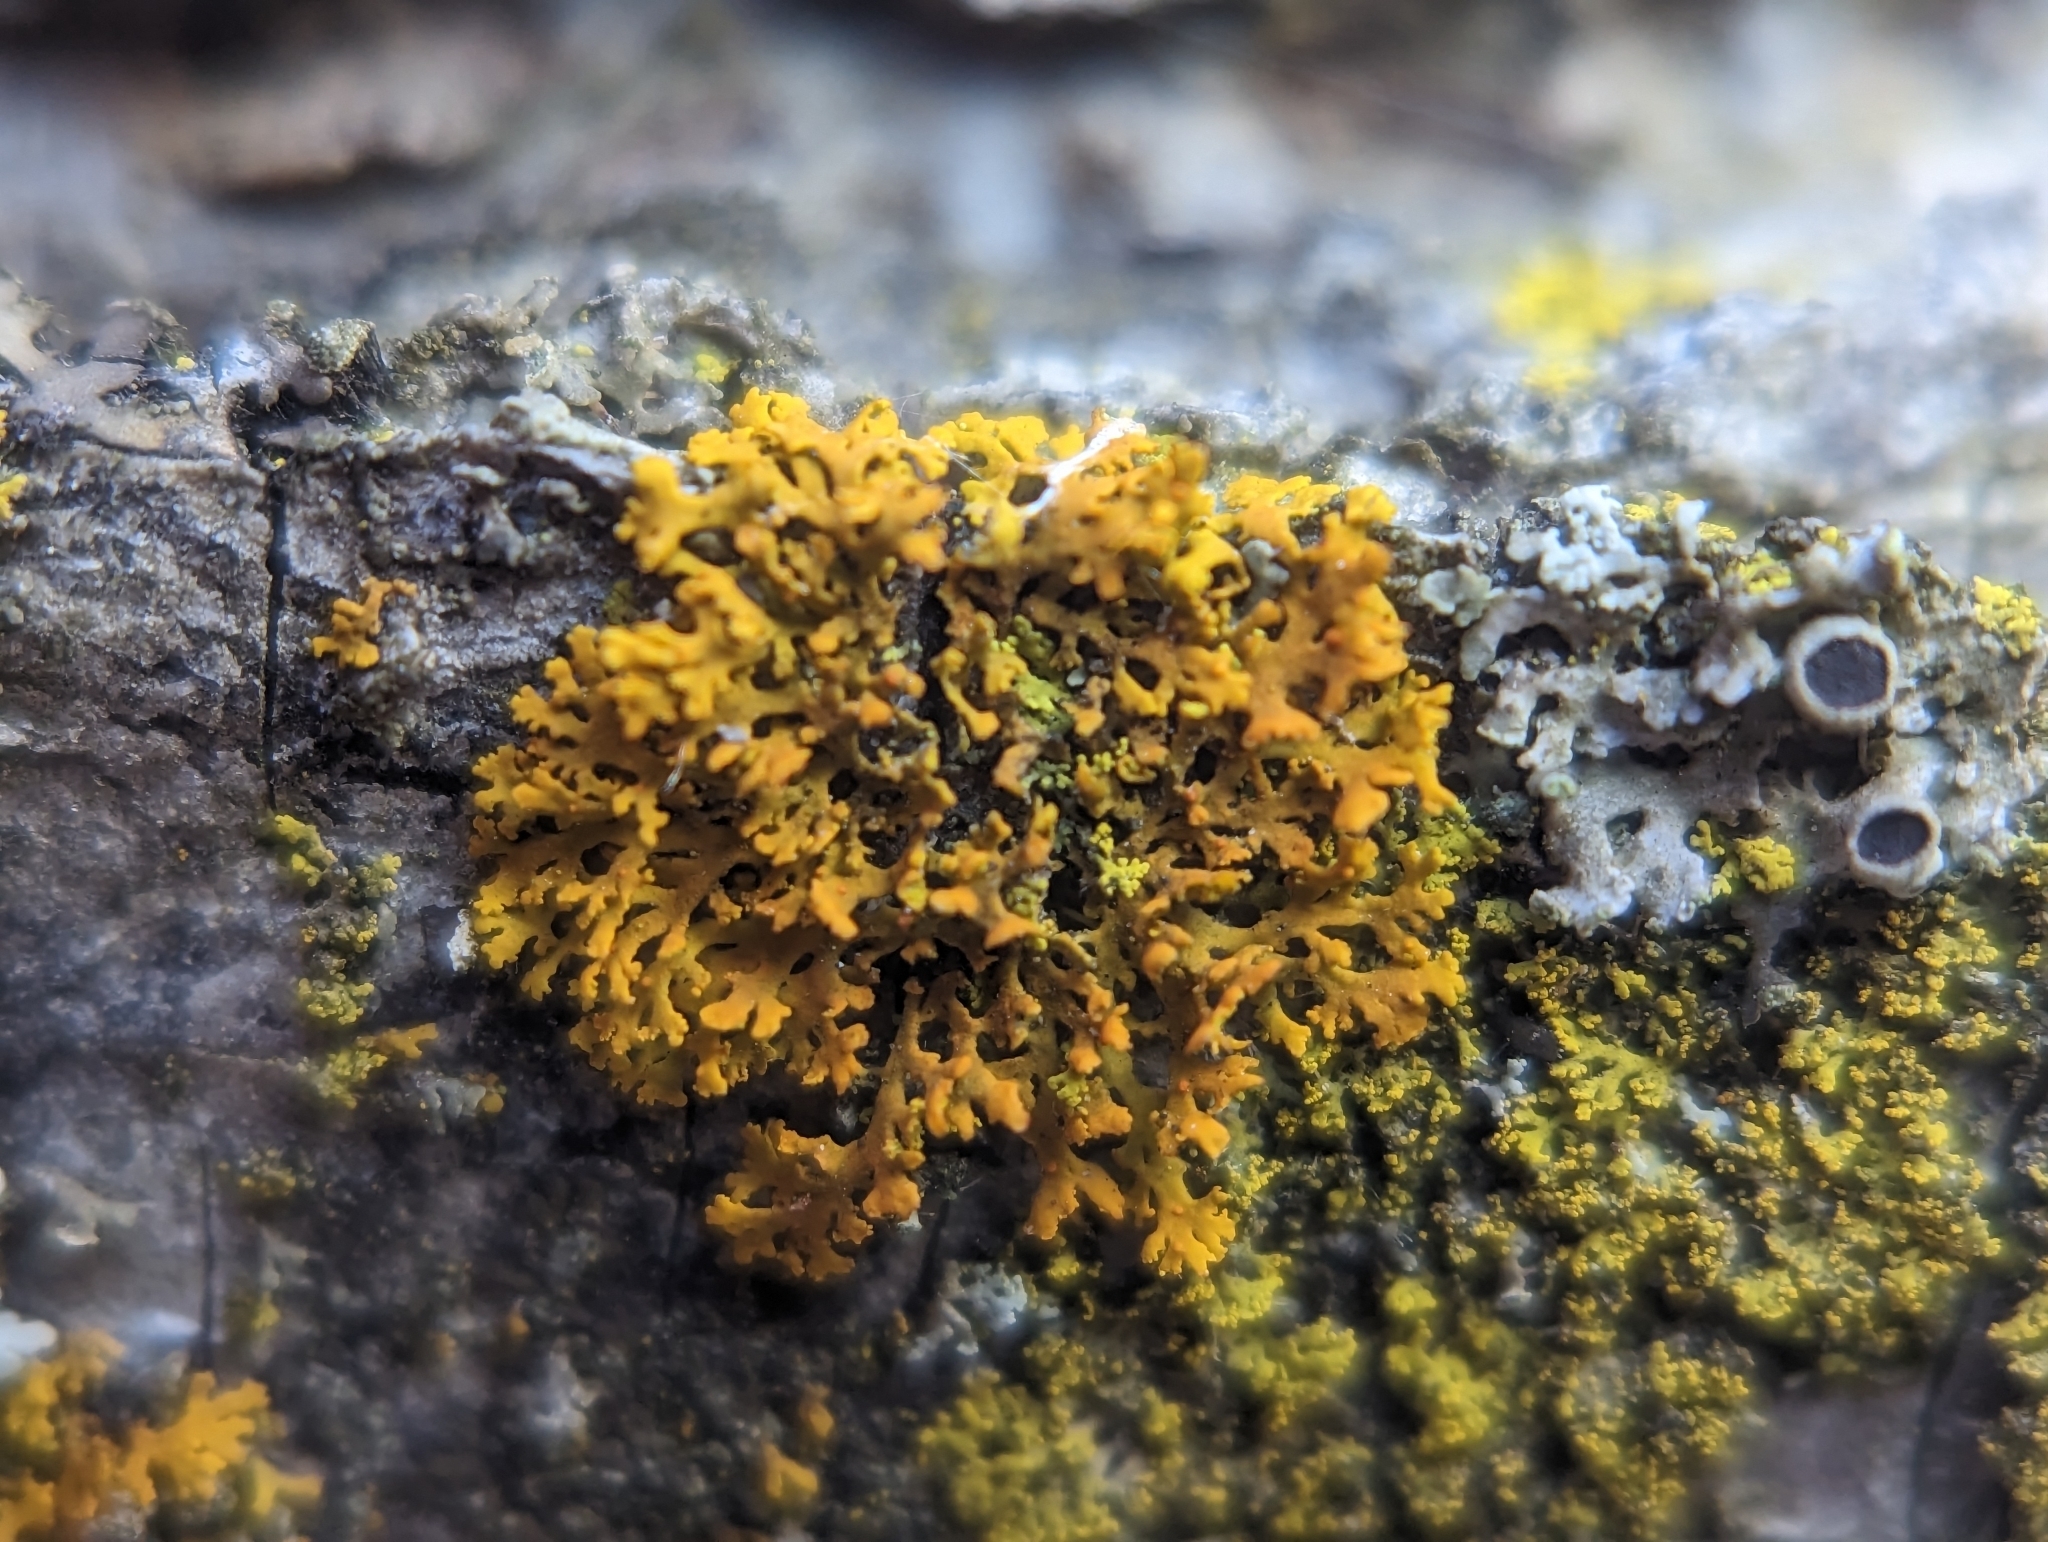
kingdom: Fungi
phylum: Ascomycota
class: Lecanoromycetes
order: Teloschistales
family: Teloschistaceae
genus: Gallowayella
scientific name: Gallowayella weberi
